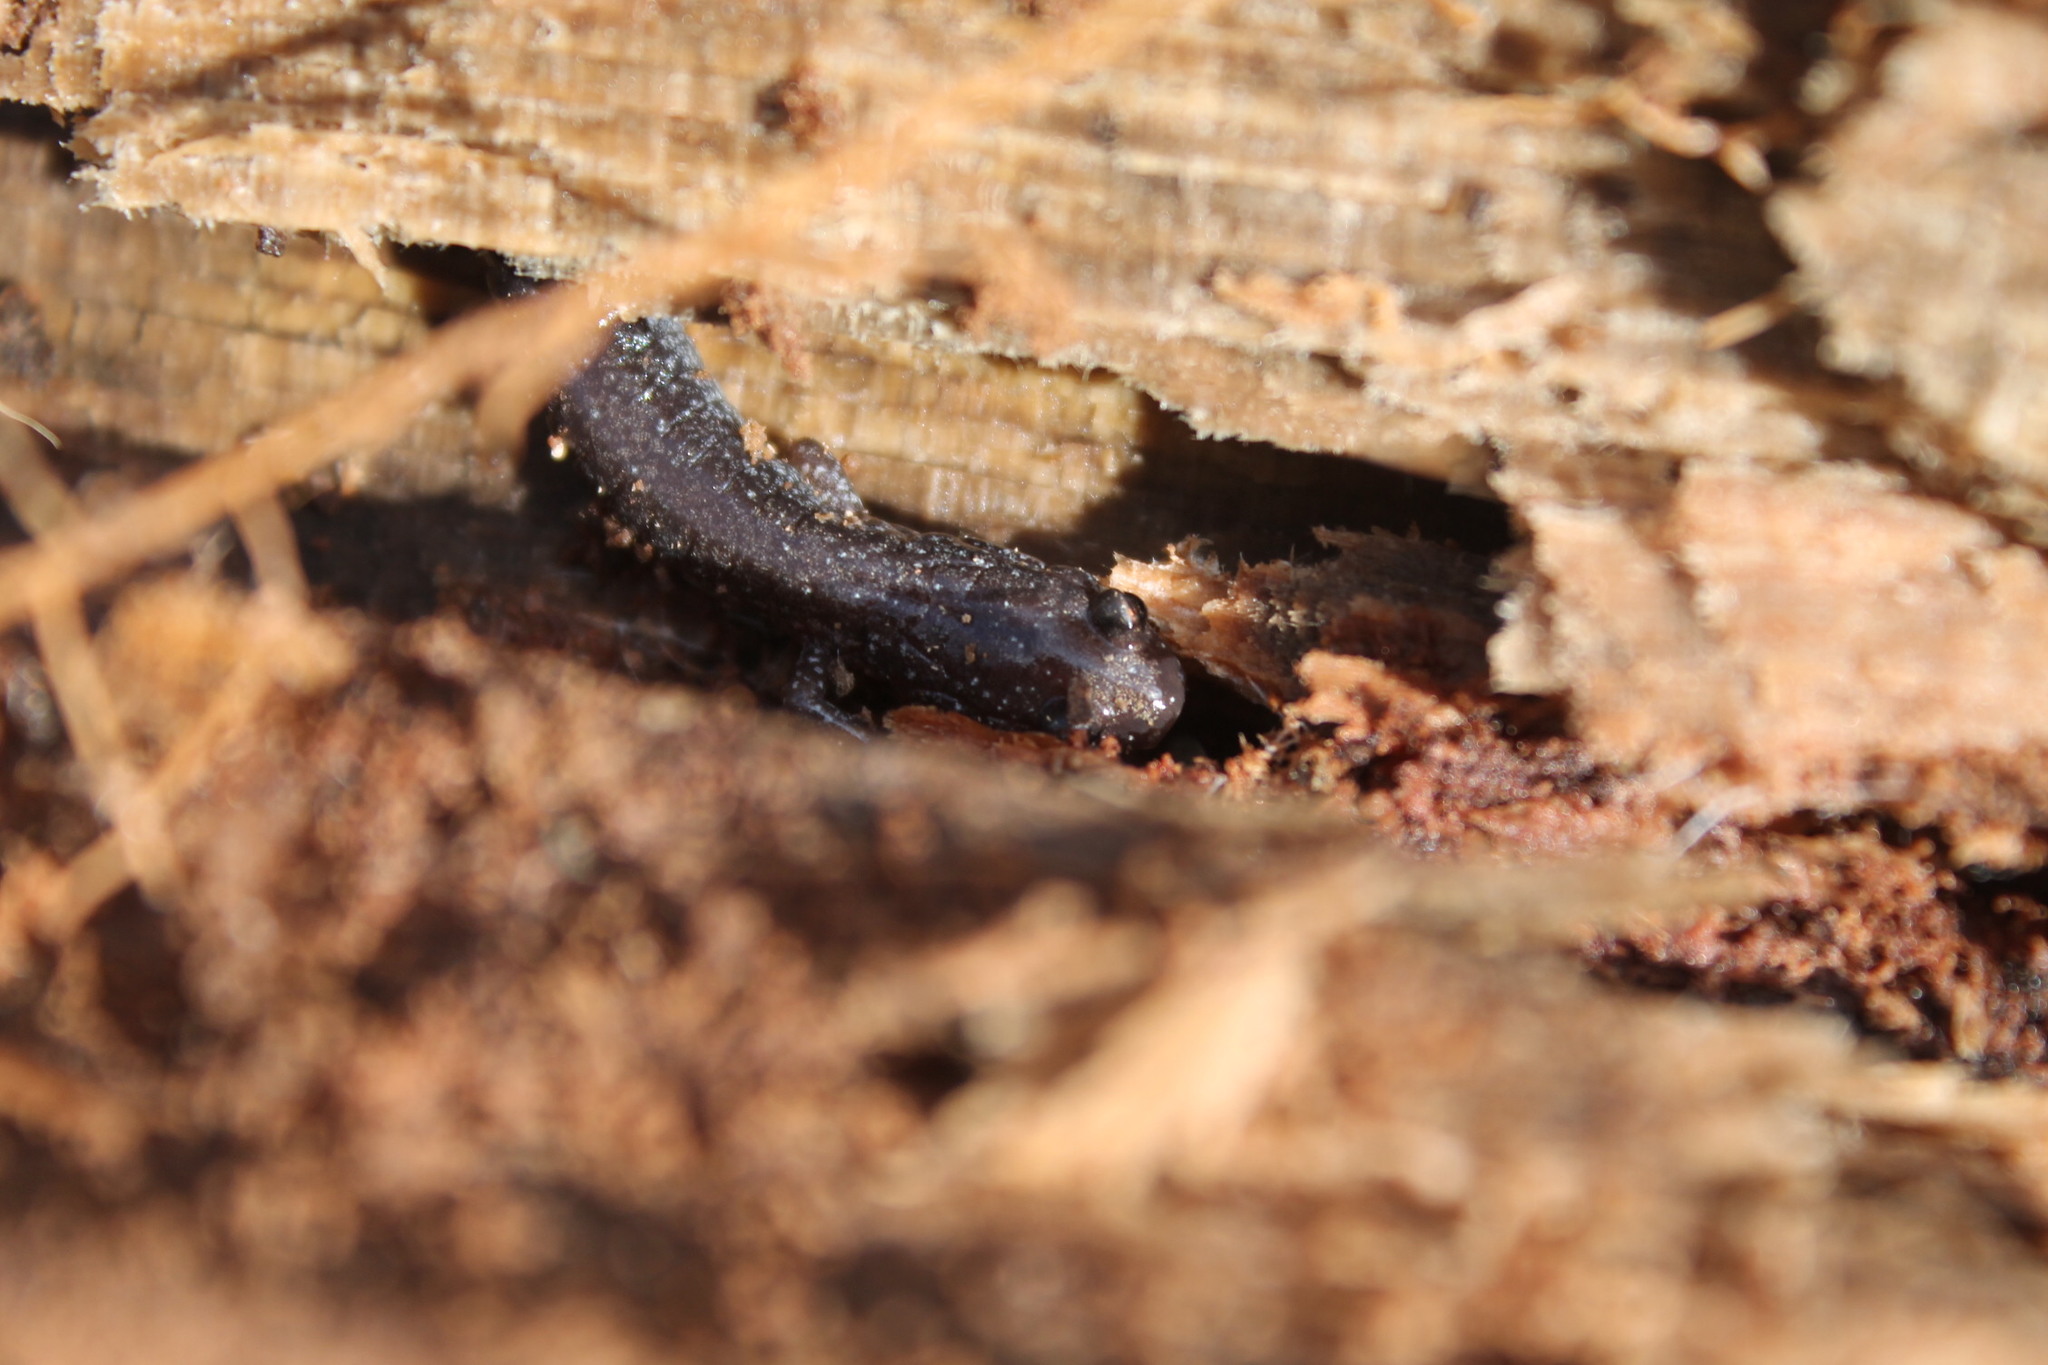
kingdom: Animalia
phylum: Chordata
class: Amphibia
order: Caudata
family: Plethodontidae
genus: Plethodon
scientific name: Plethodon cinereus
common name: Redback salamander
